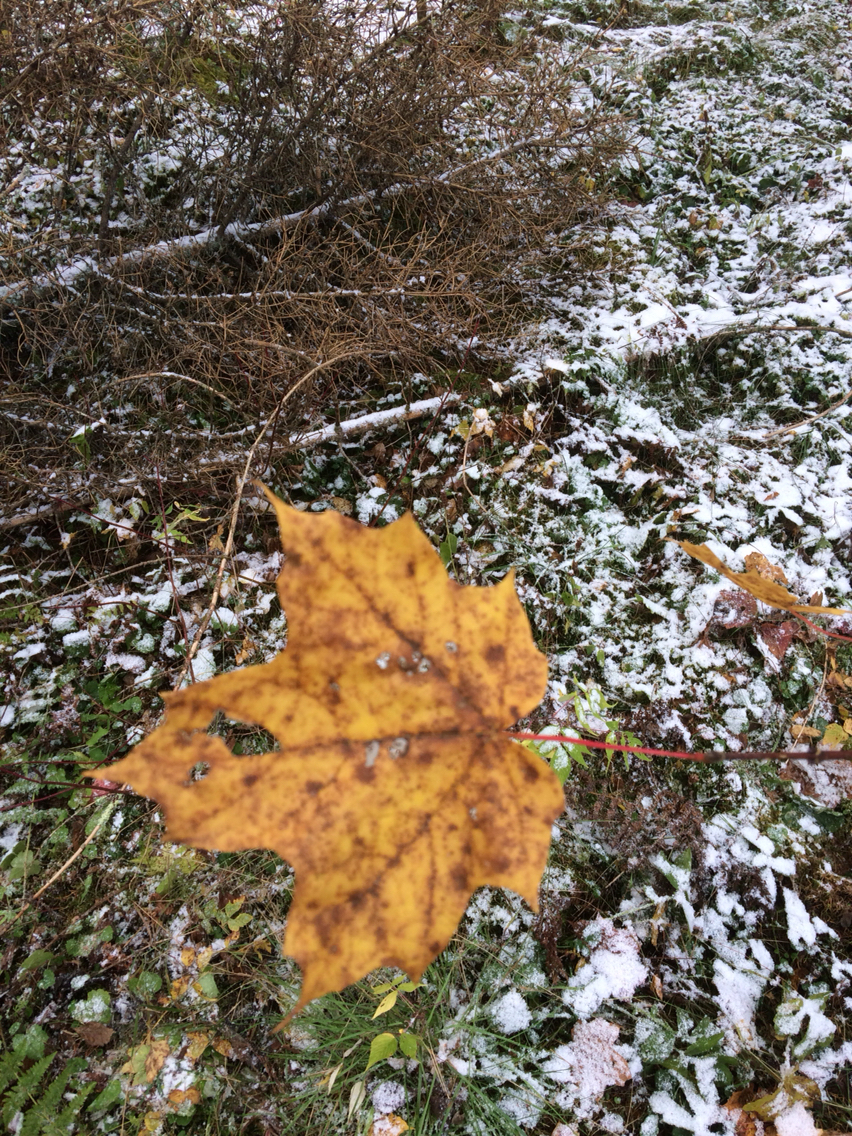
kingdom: Plantae
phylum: Tracheophyta
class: Magnoliopsida
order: Sapindales
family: Sapindaceae
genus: Acer
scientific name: Acer saccharum
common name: Sugar maple
